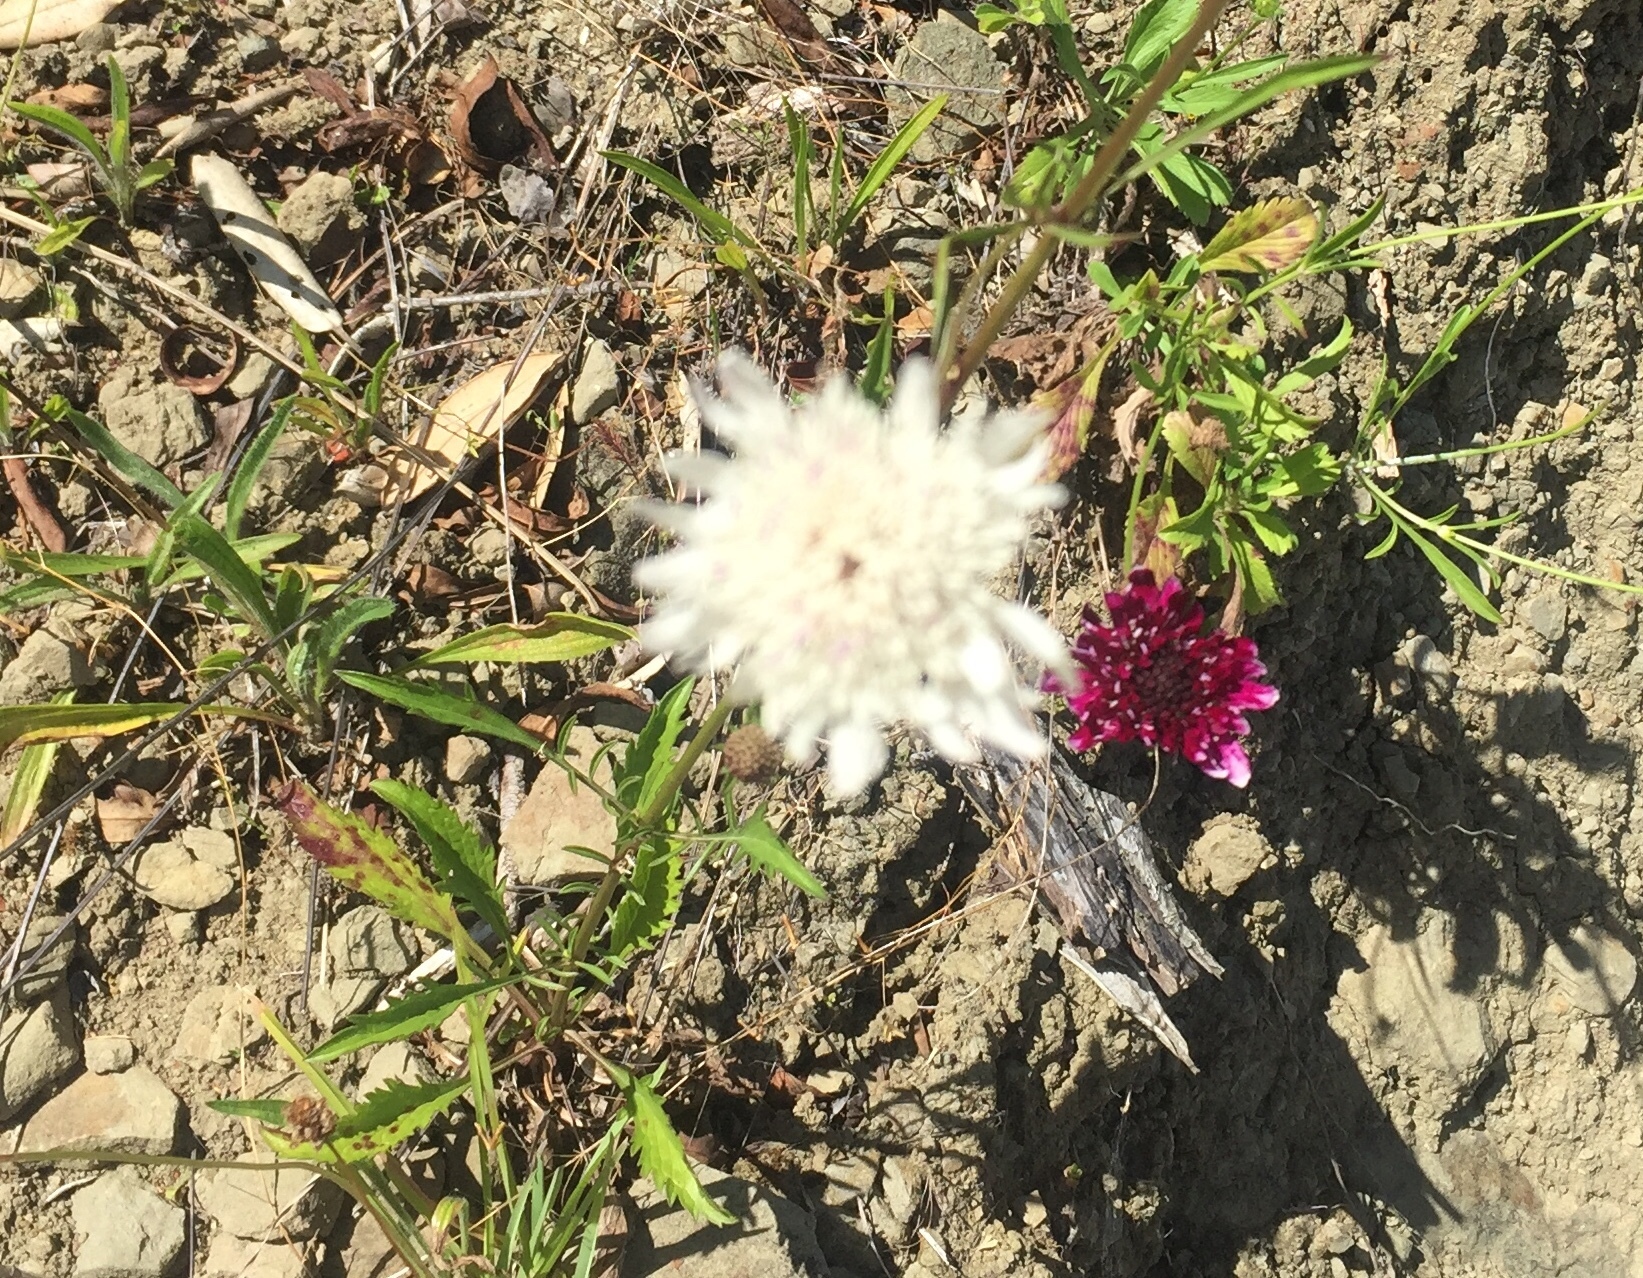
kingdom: Plantae
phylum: Tracheophyta
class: Magnoliopsida
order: Dipsacales
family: Caprifoliaceae
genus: Sixalix
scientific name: Sixalix atropurpurea
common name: Sweet scabious
